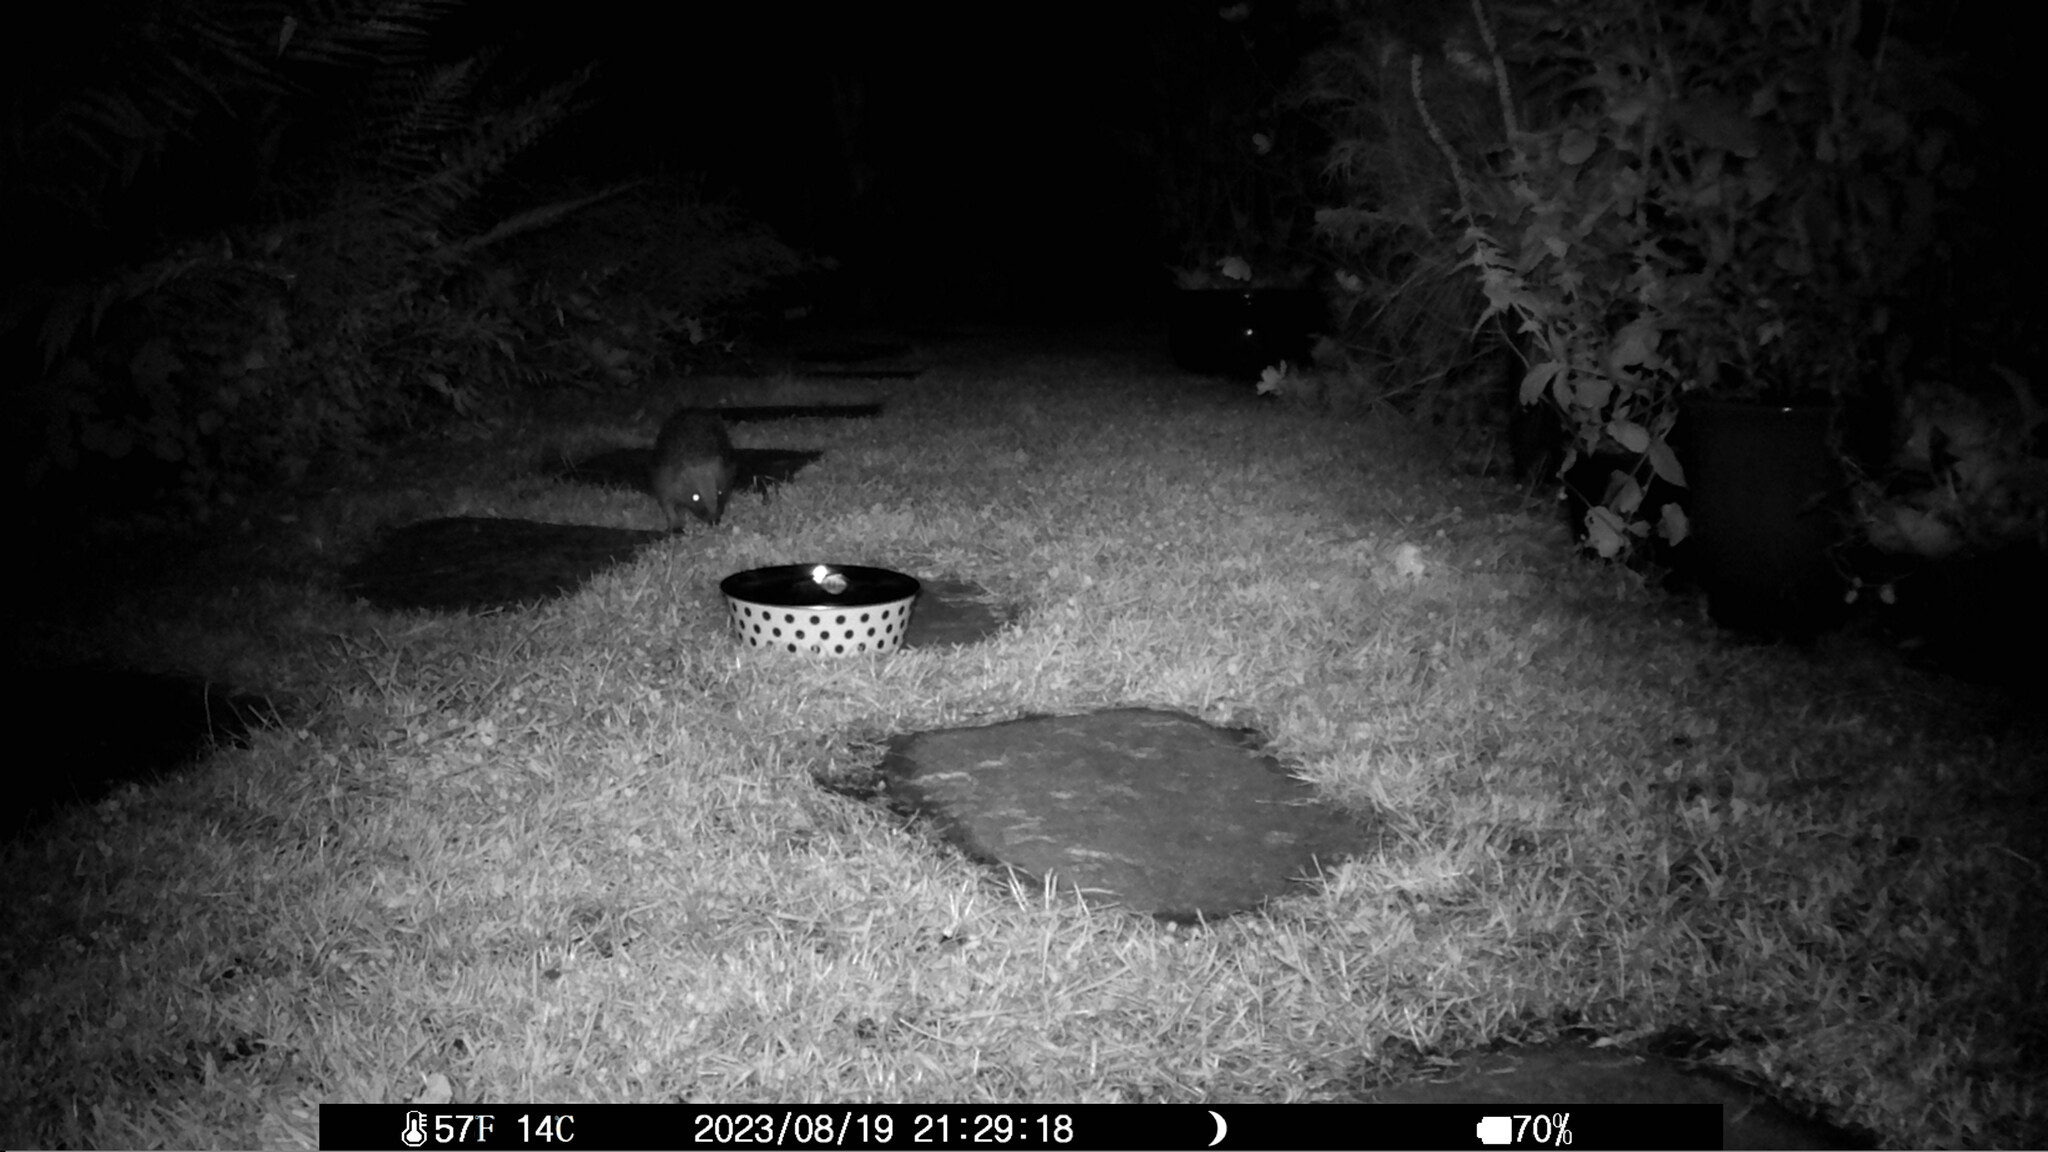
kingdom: Animalia
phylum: Chordata
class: Mammalia
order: Erinaceomorpha
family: Erinaceidae
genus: Erinaceus
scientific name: Erinaceus europaeus
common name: West european hedgehog
